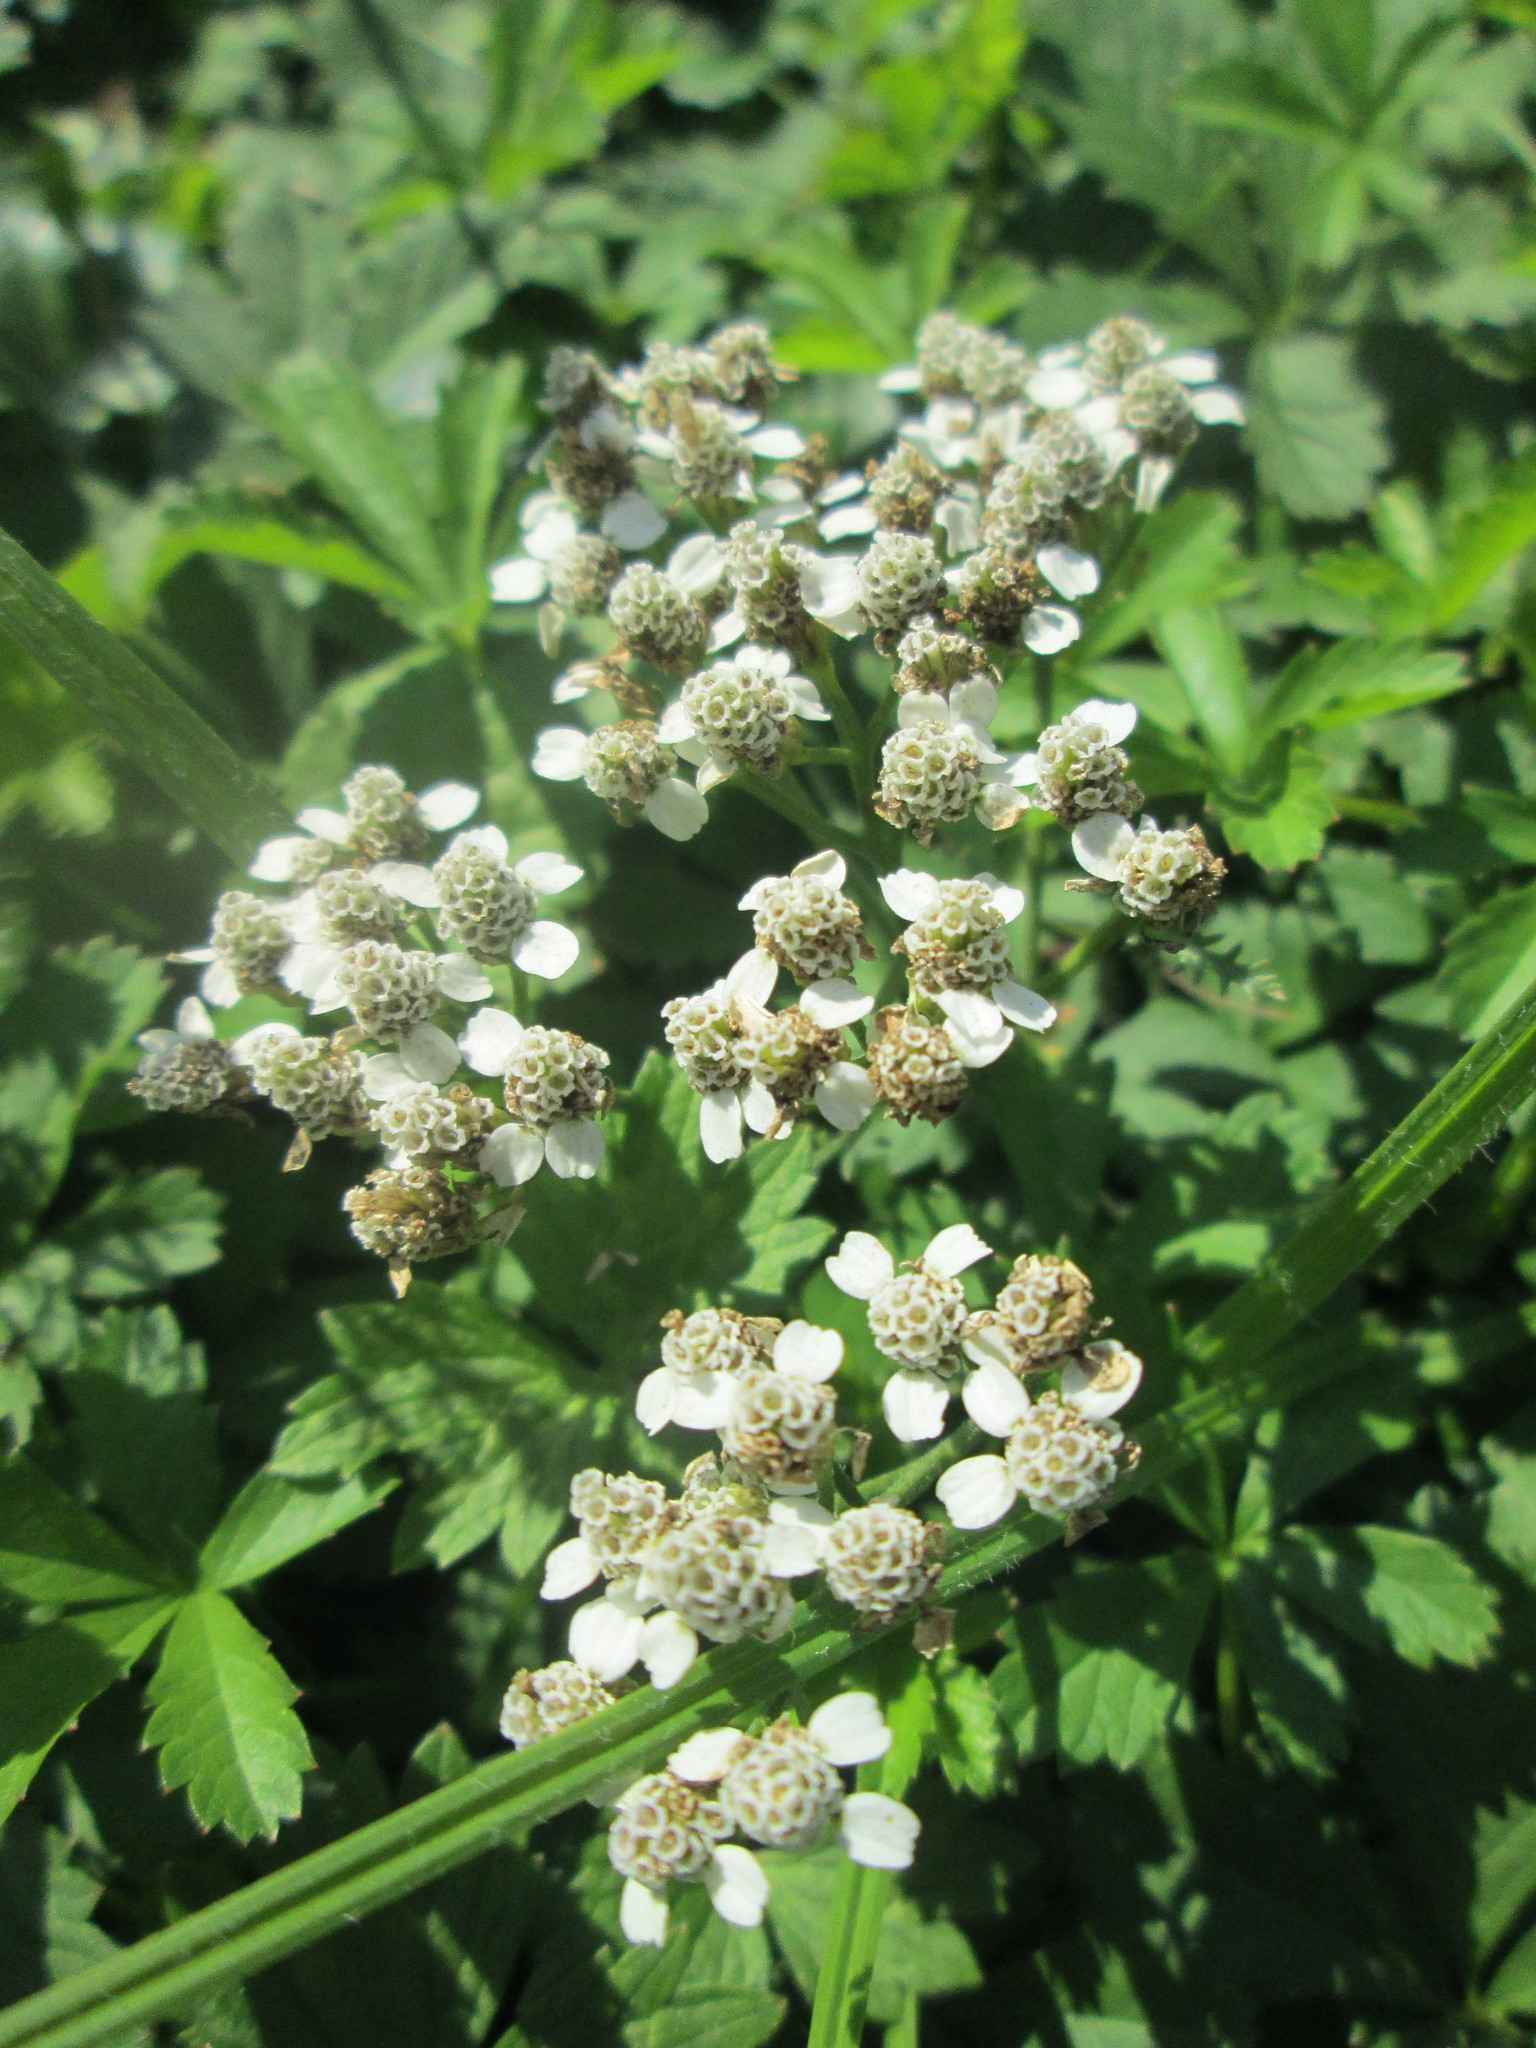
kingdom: Plantae
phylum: Tracheophyta
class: Magnoliopsida
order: Asterales
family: Asteraceae
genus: Achillea
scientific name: Achillea ptarmica
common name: Sneezeweed
